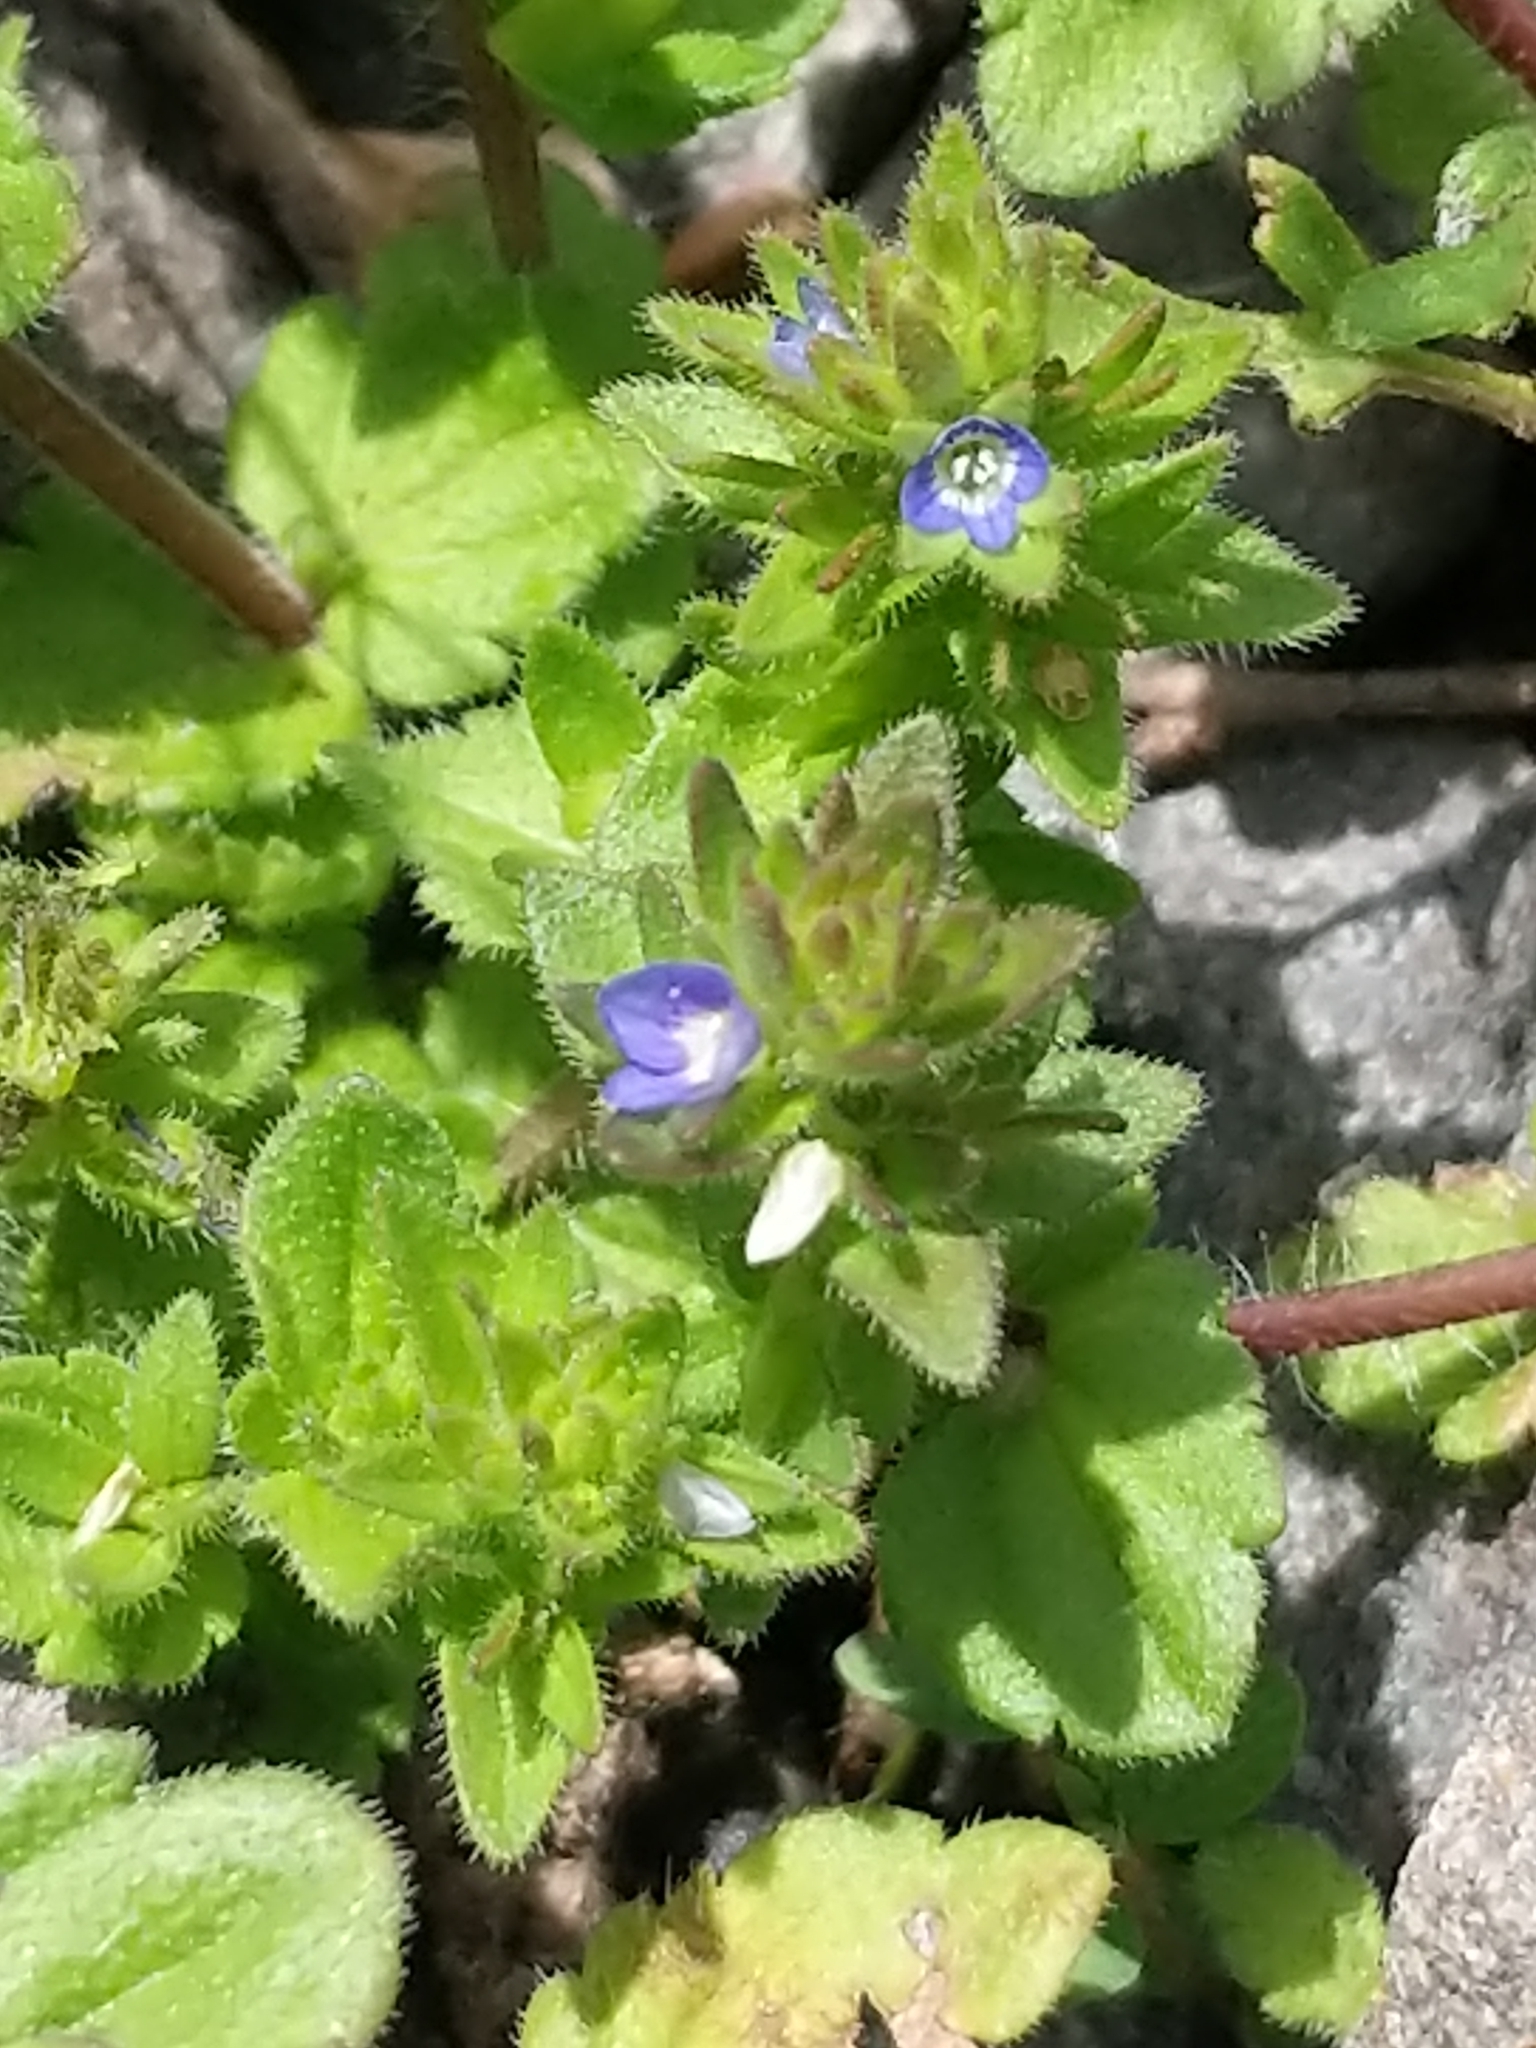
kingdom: Plantae
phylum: Tracheophyta
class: Magnoliopsida
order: Lamiales
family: Plantaginaceae
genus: Veronica
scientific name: Veronica arvensis
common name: Corn speedwell
